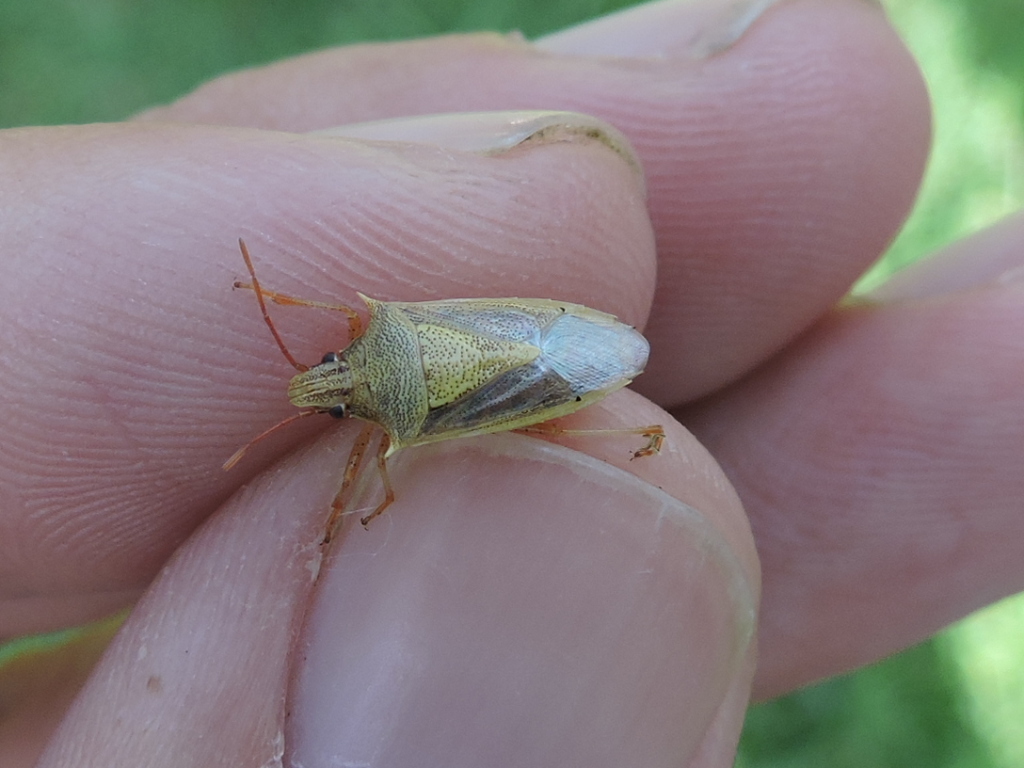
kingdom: Animalia
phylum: Arthropoda
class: Insecta
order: Hemiptera
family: Pentatomidae
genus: Oebalus
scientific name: Oebalus pugnax
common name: Rice stink bug
